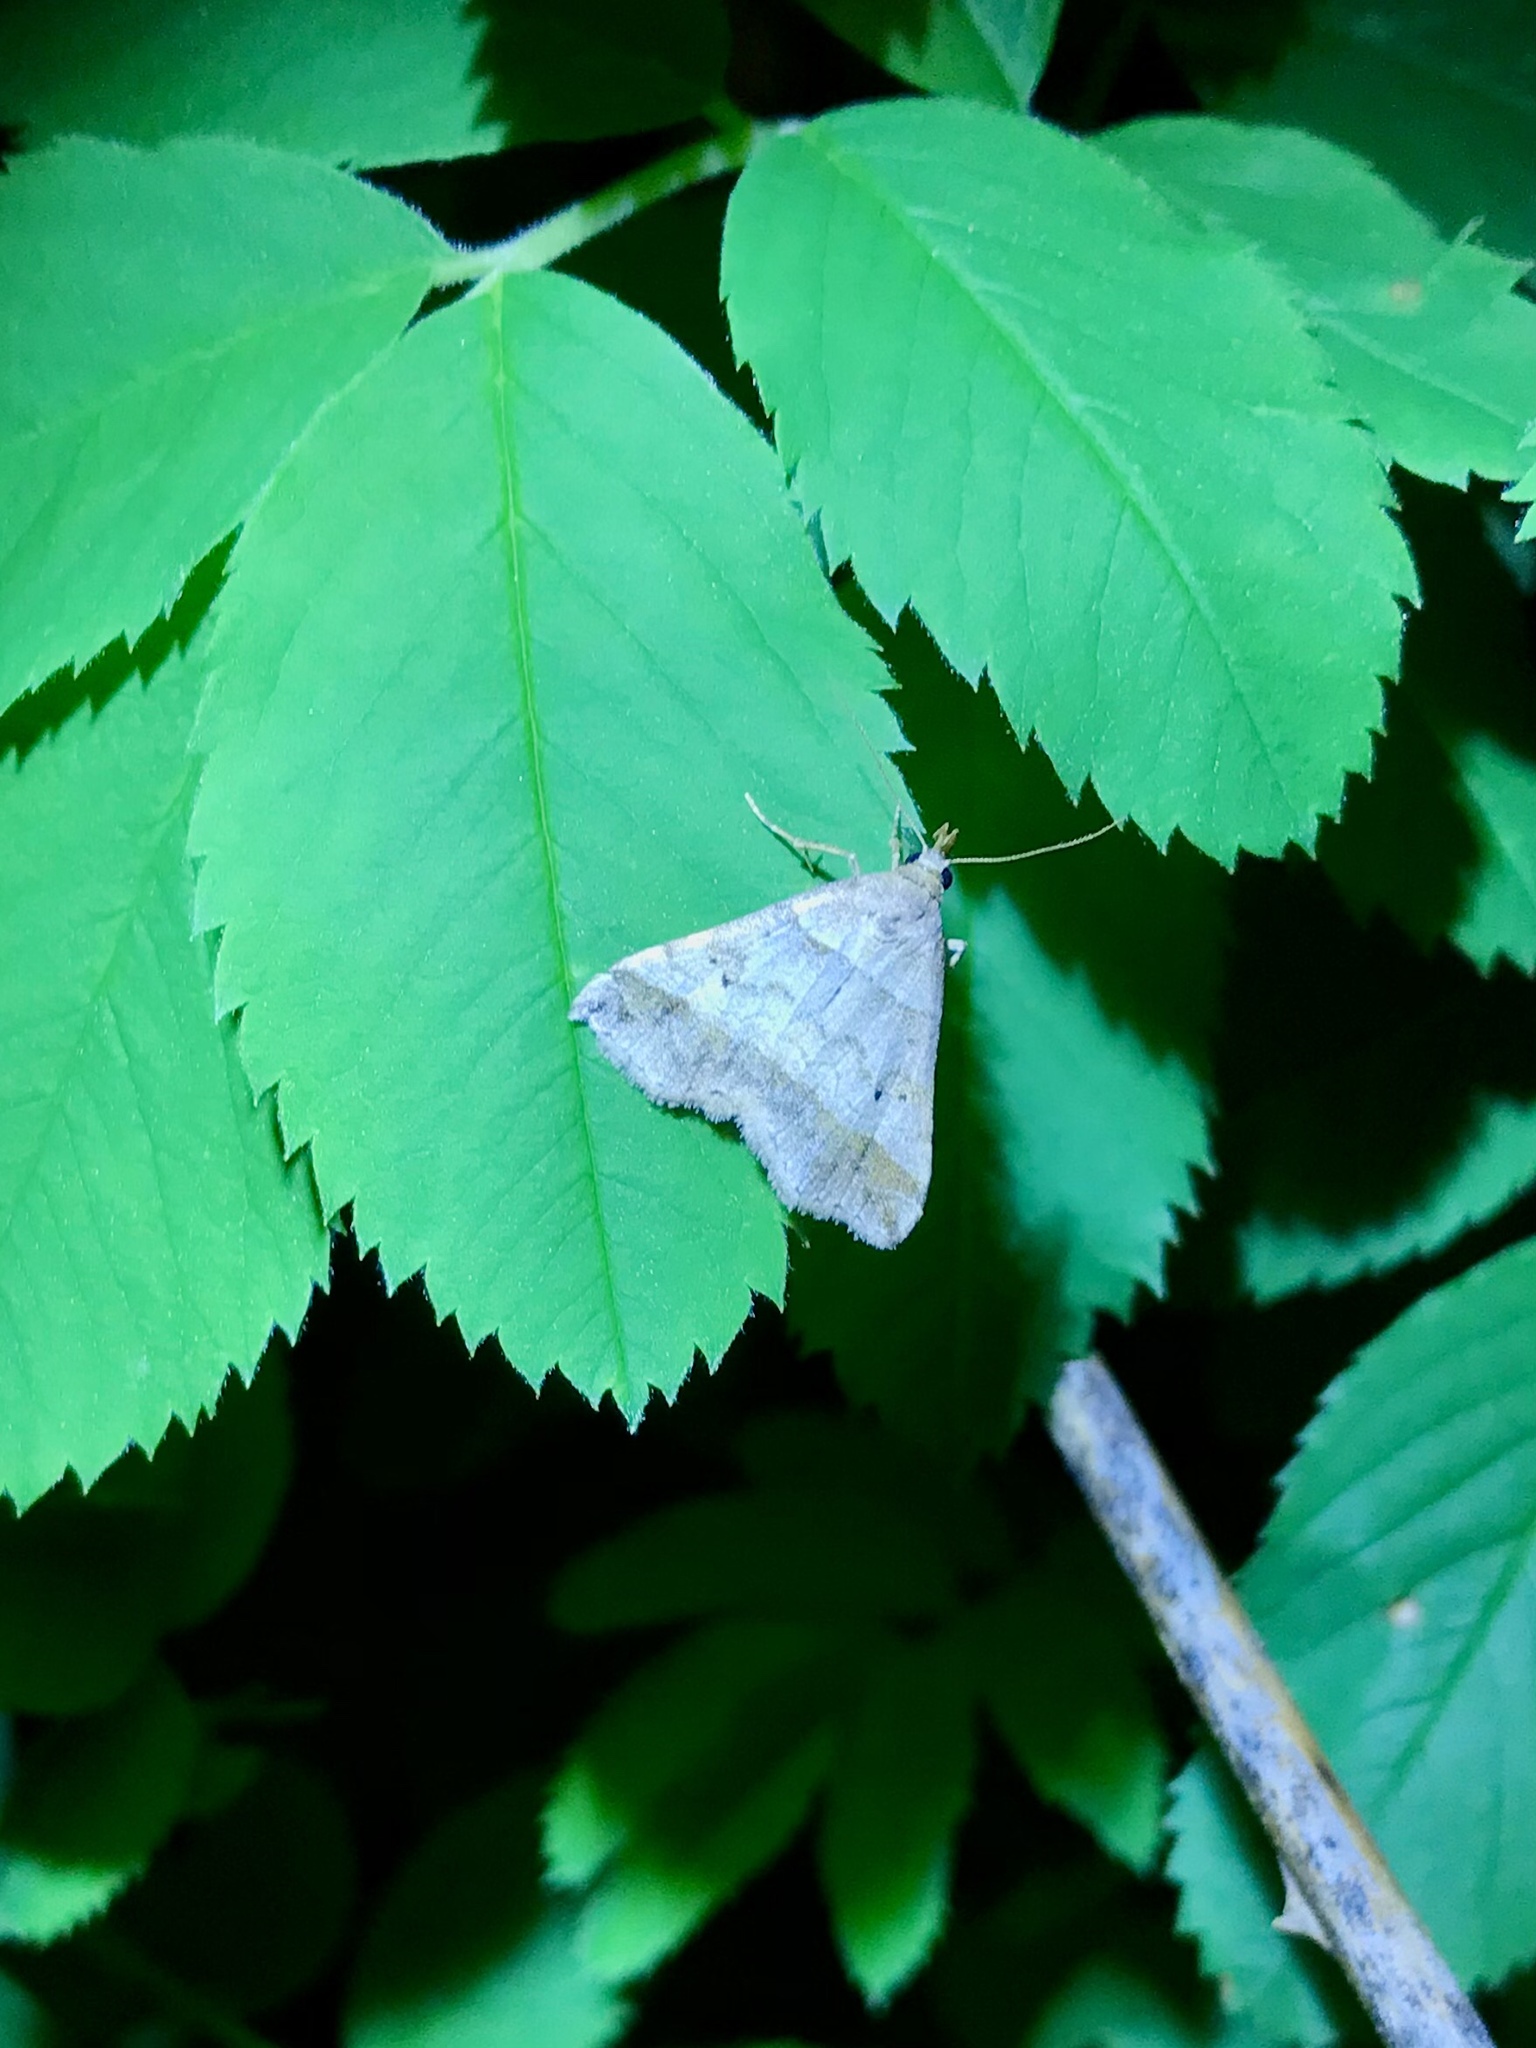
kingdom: Animalia
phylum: Arthropoda
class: Insecta
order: Lepidoptera
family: Erebidae
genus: Phaeolita
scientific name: Phaeolita pyramusalis
